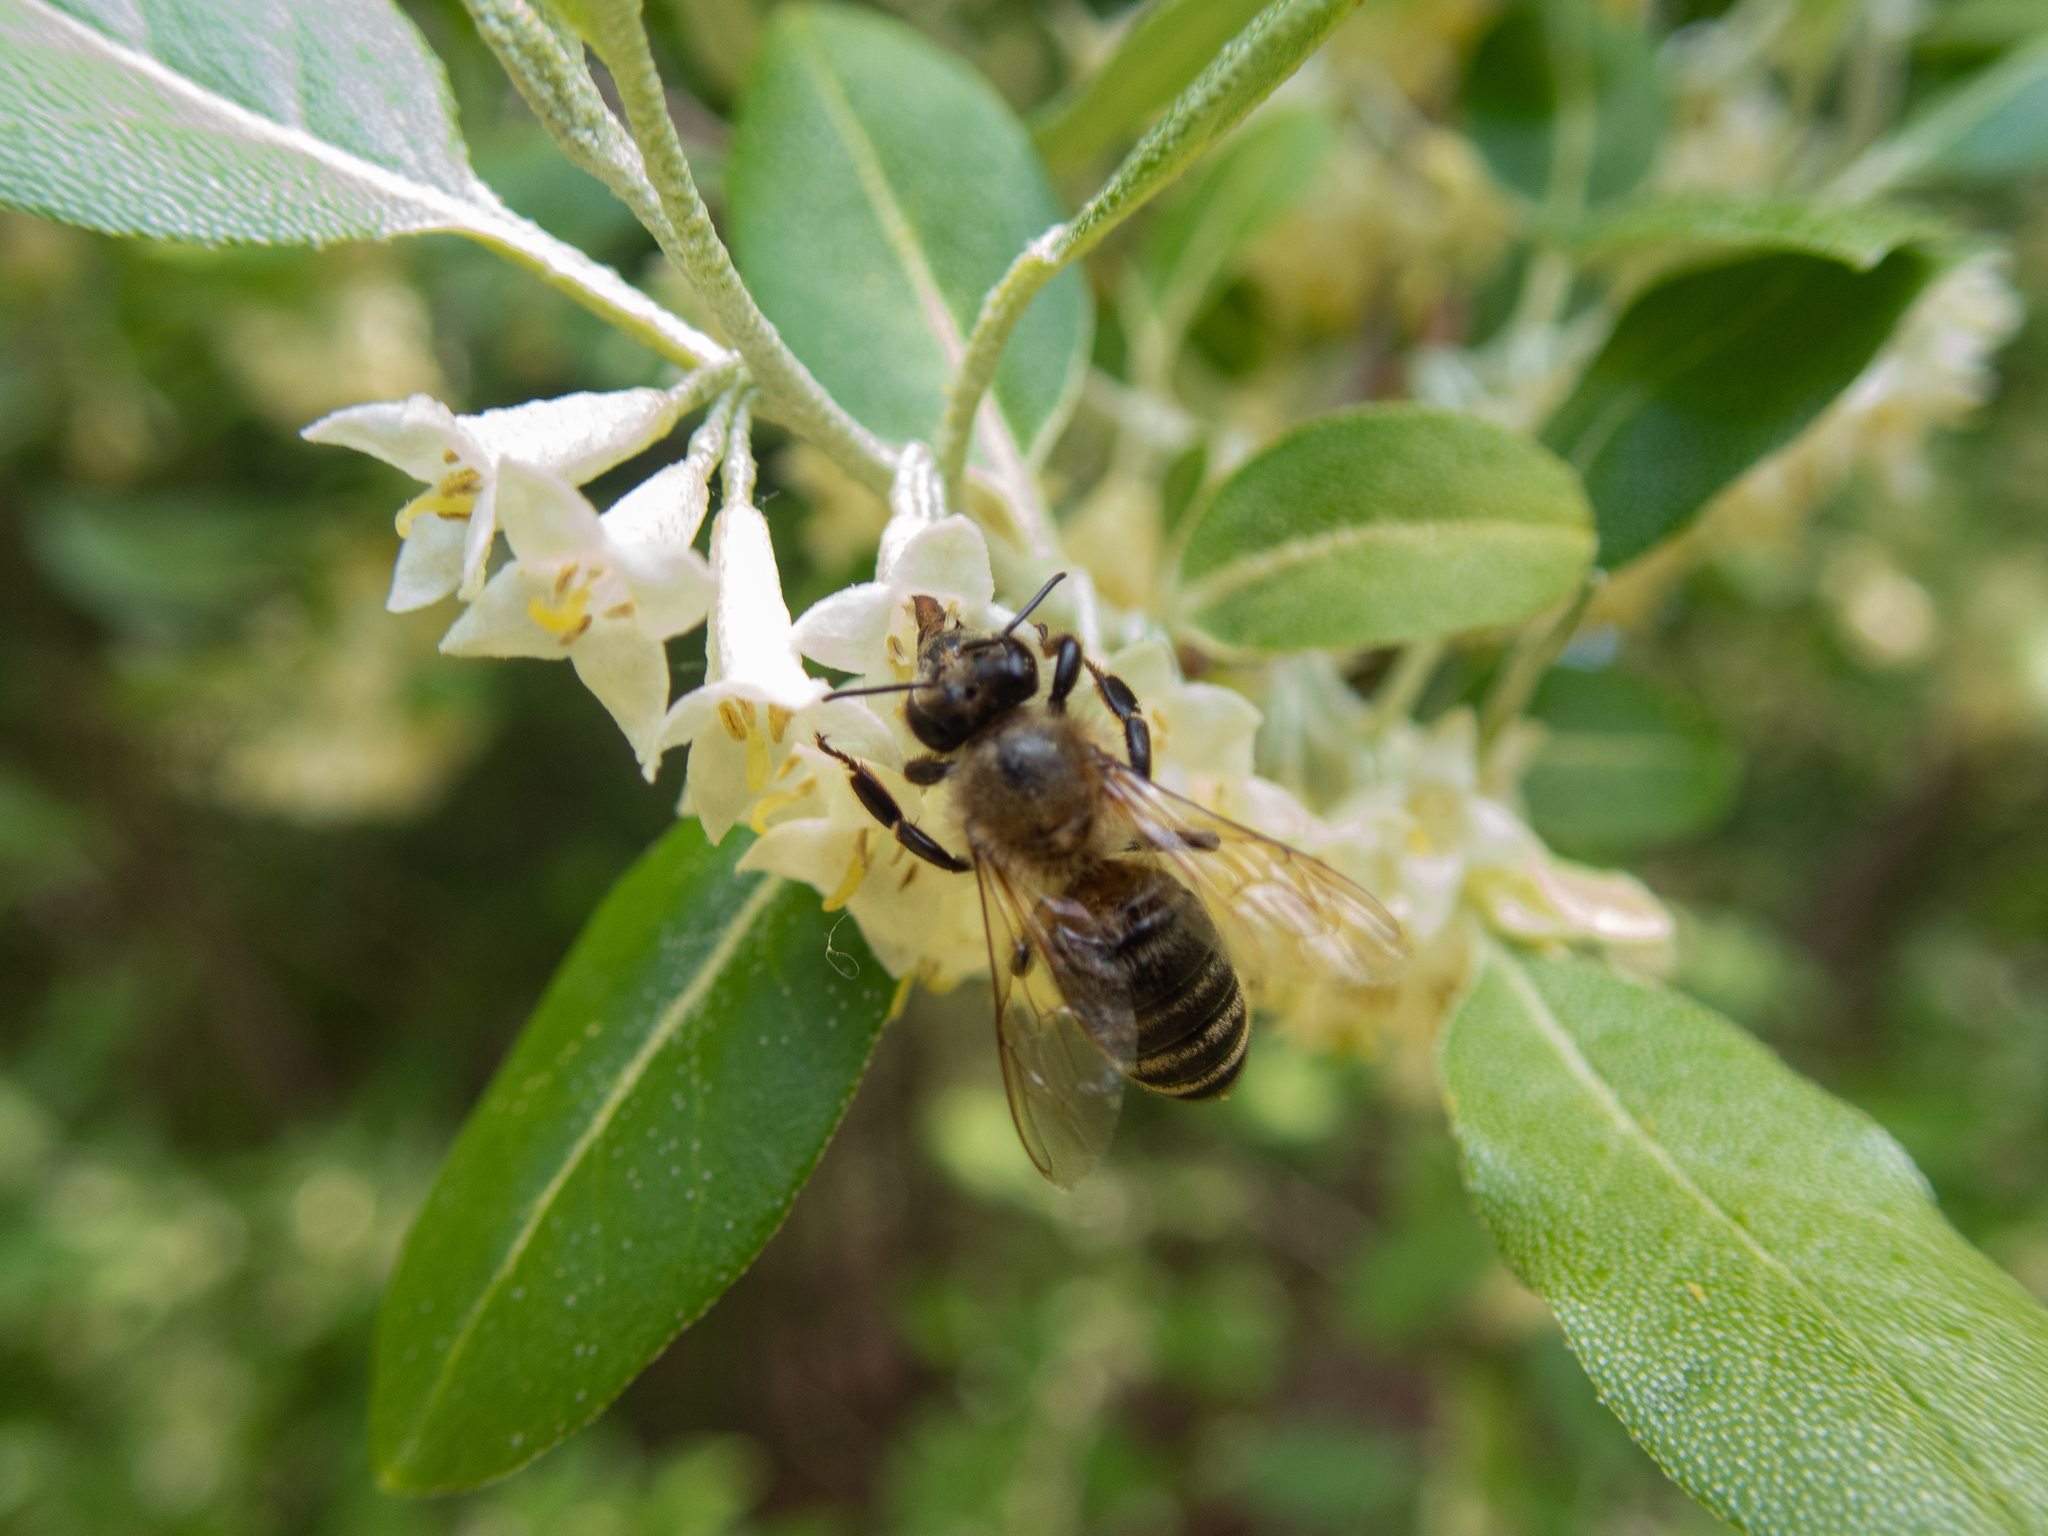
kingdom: Animalia
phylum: Arthropoda
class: Insecta
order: Hymenoptera
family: Apidae
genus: Apis
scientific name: Apis mellifera
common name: Honey bee
